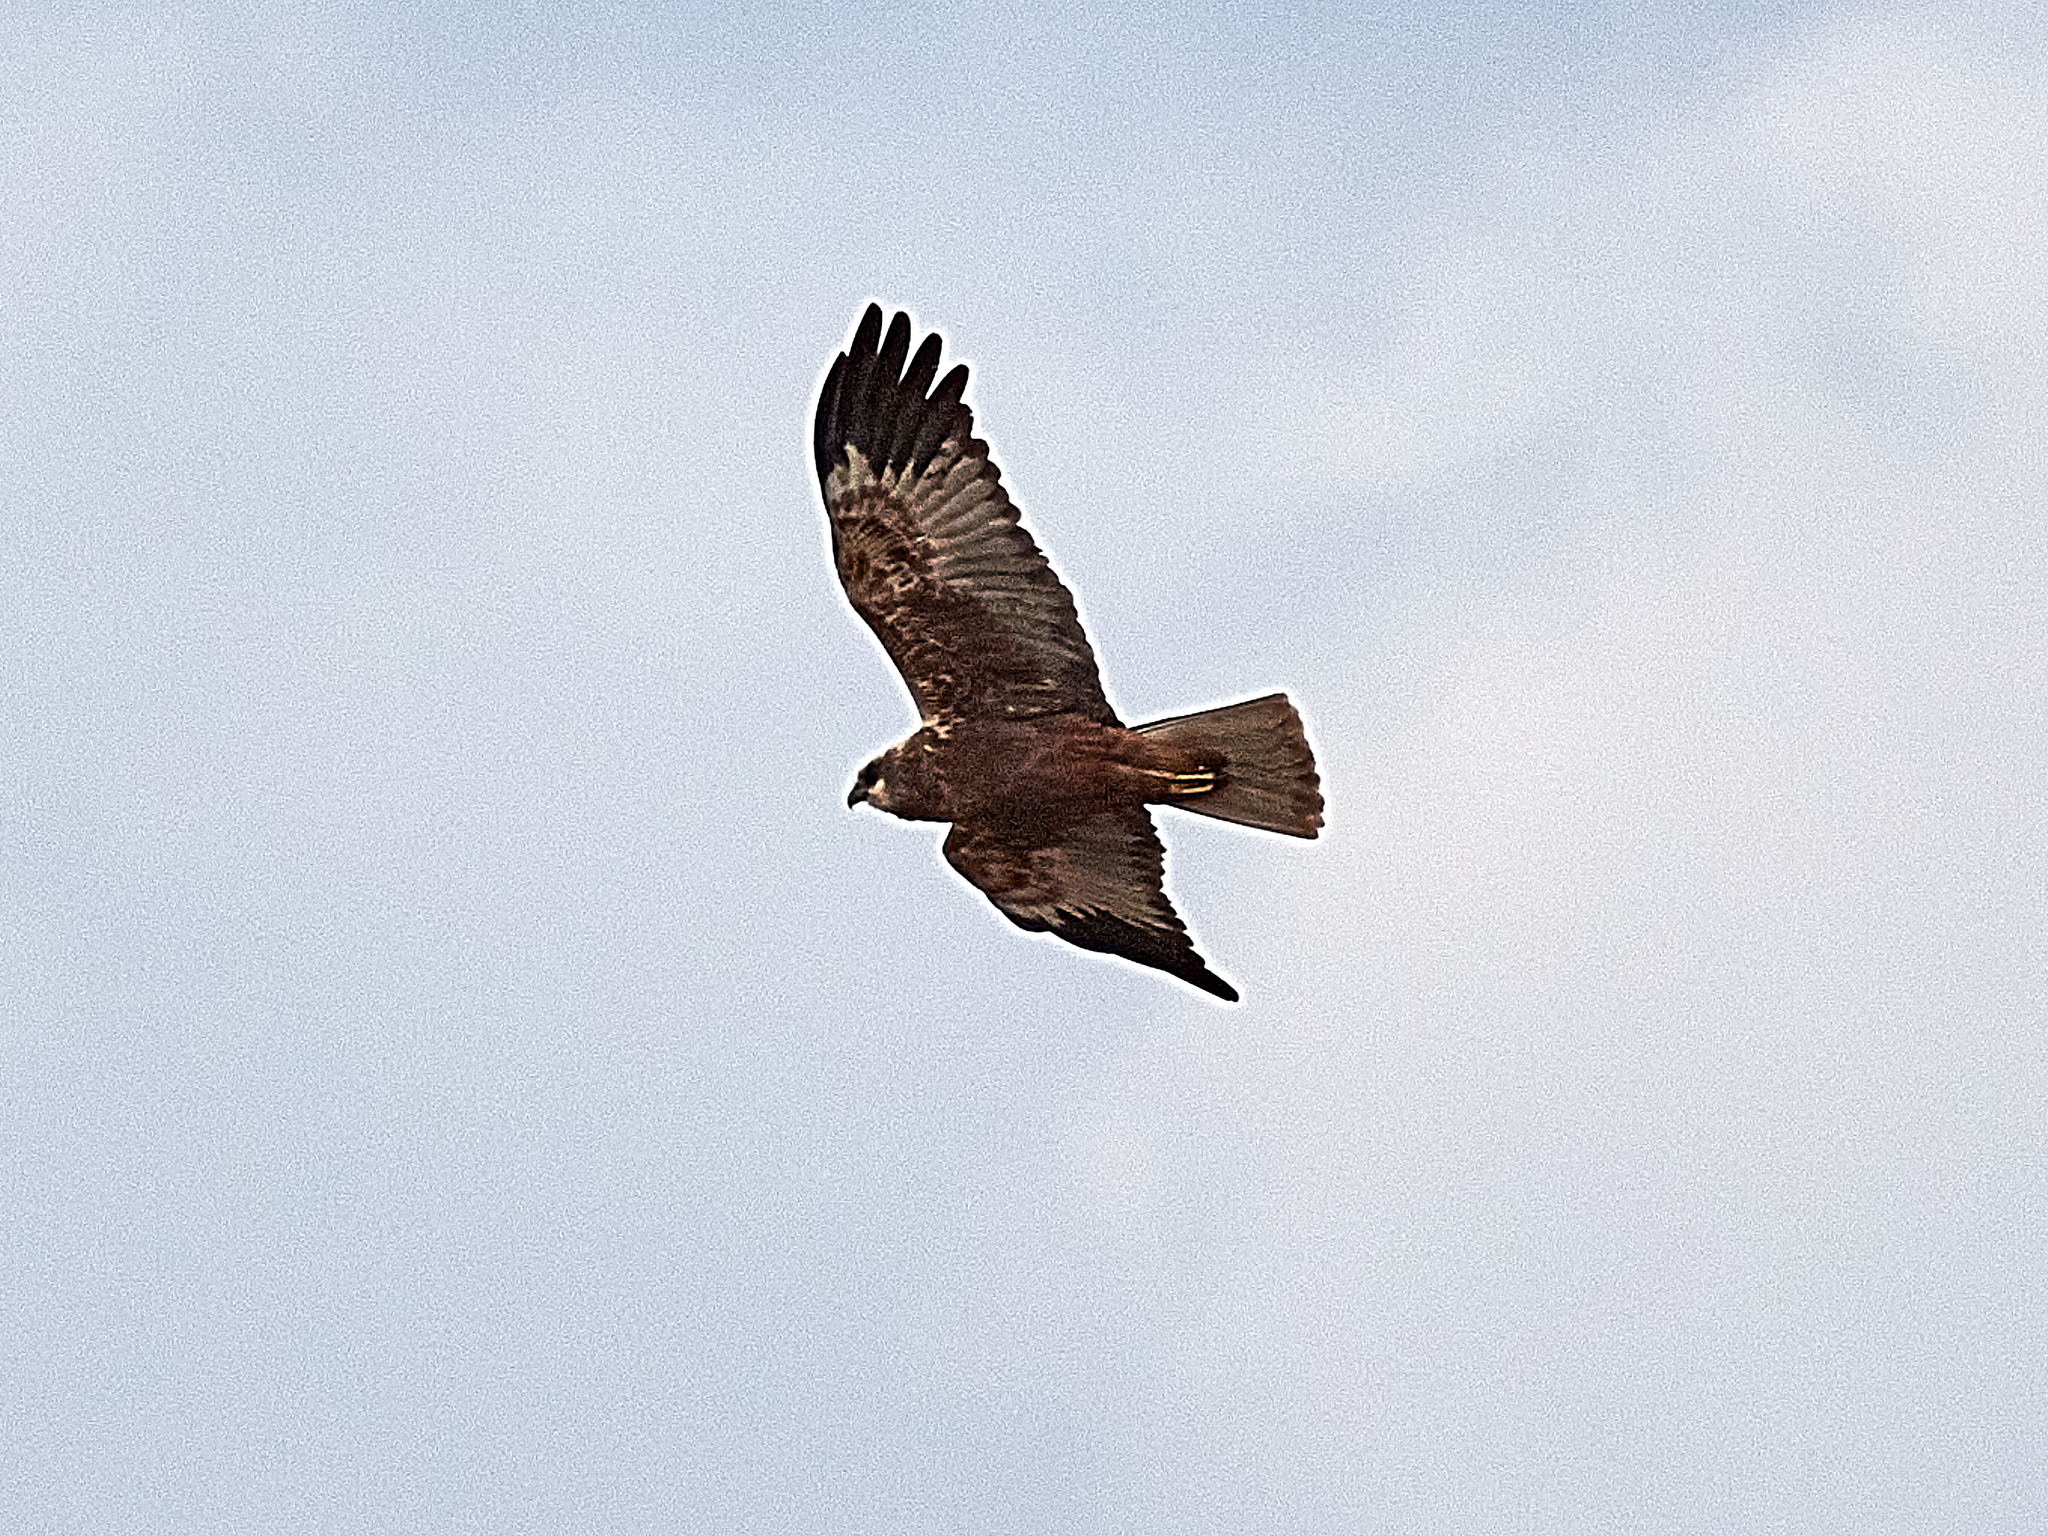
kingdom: Animalia
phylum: Chordata
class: Aves
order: Accipitriformes
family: Accipitridae
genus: Circus
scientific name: Circus aeruginosus
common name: Western marsh harrier
